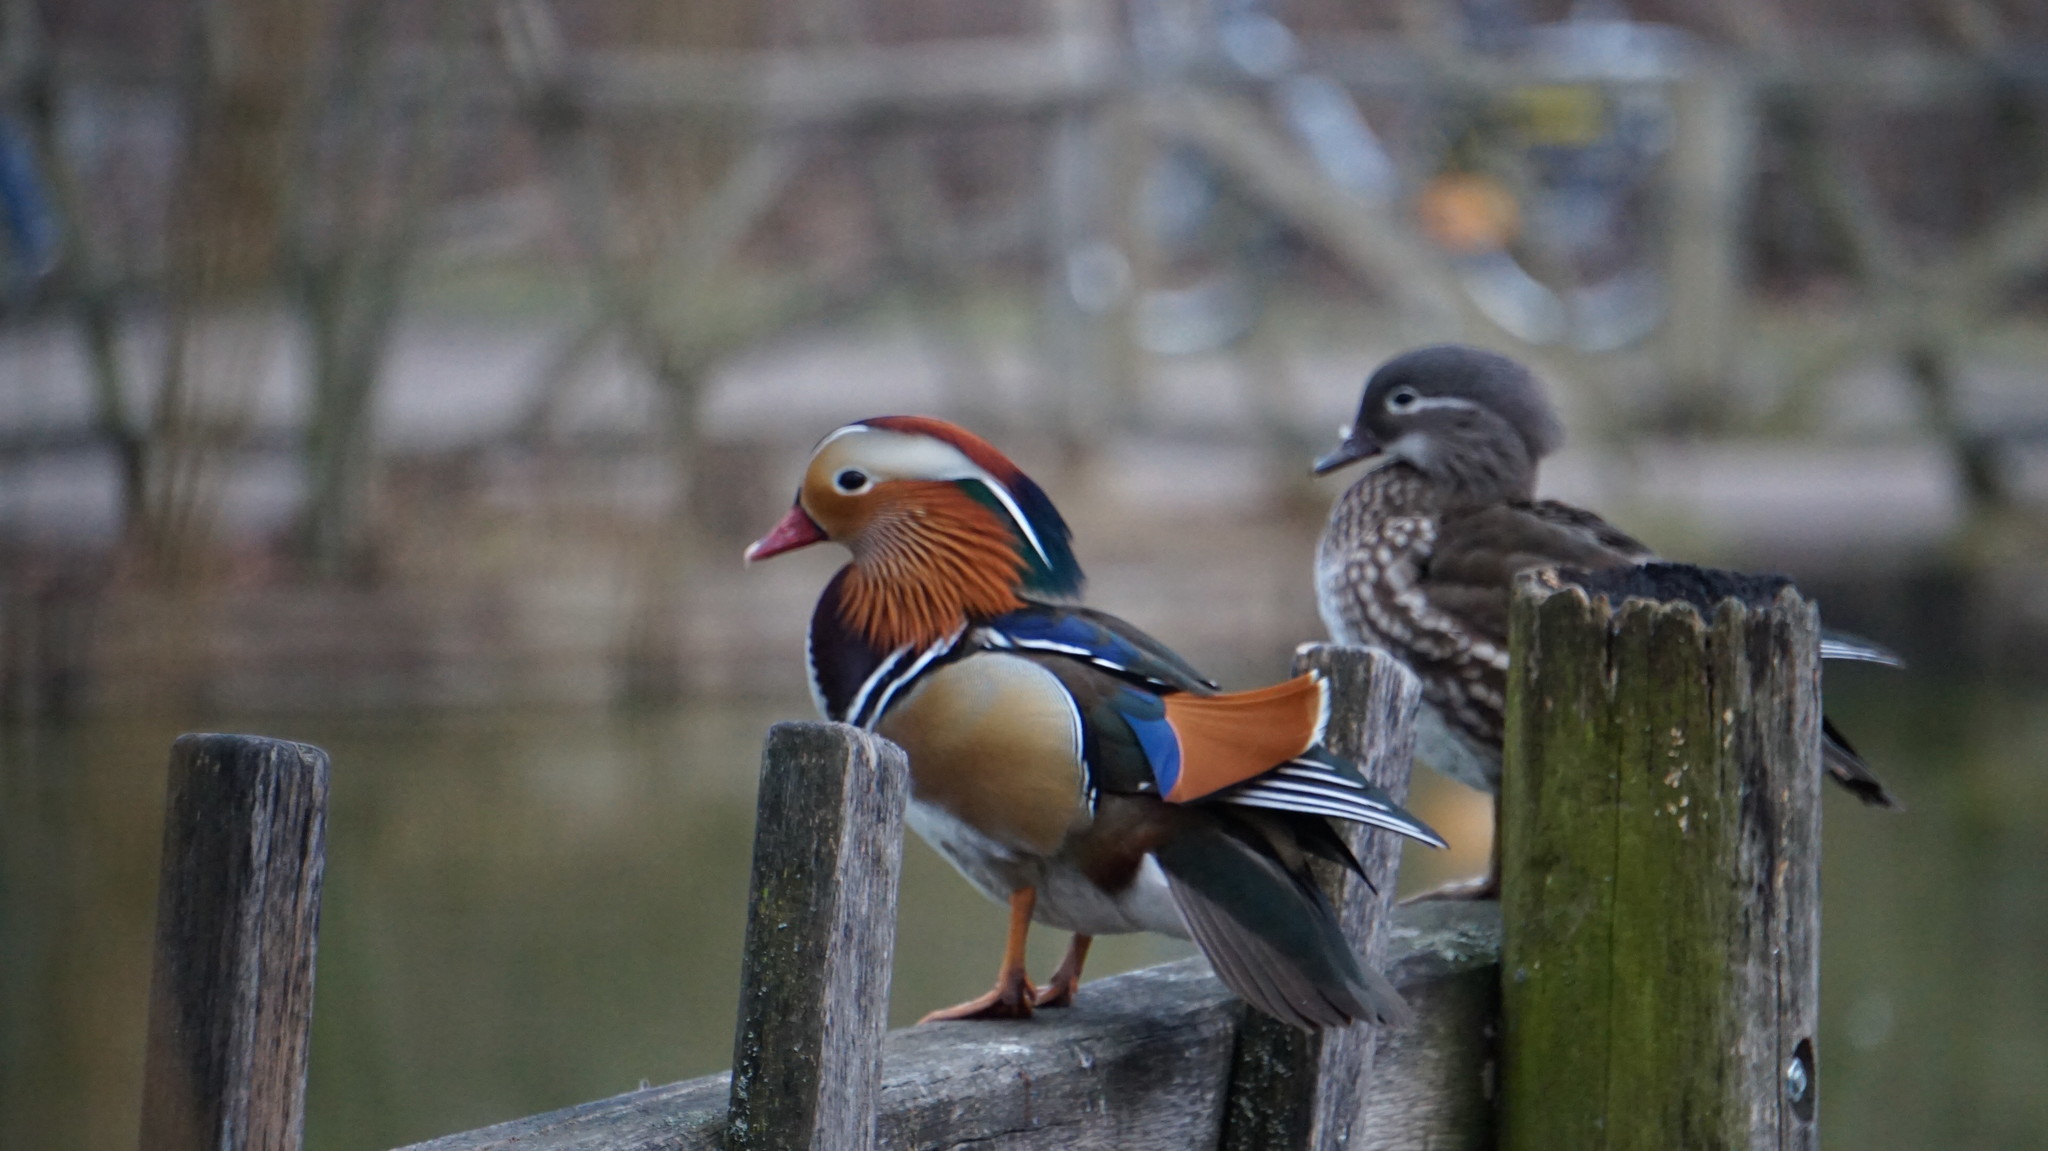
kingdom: Animalia
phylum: Chordata
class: Aves
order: Anseriformes
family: Anatidae
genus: Aix
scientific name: Aix galericulata
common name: Mandarin duck
